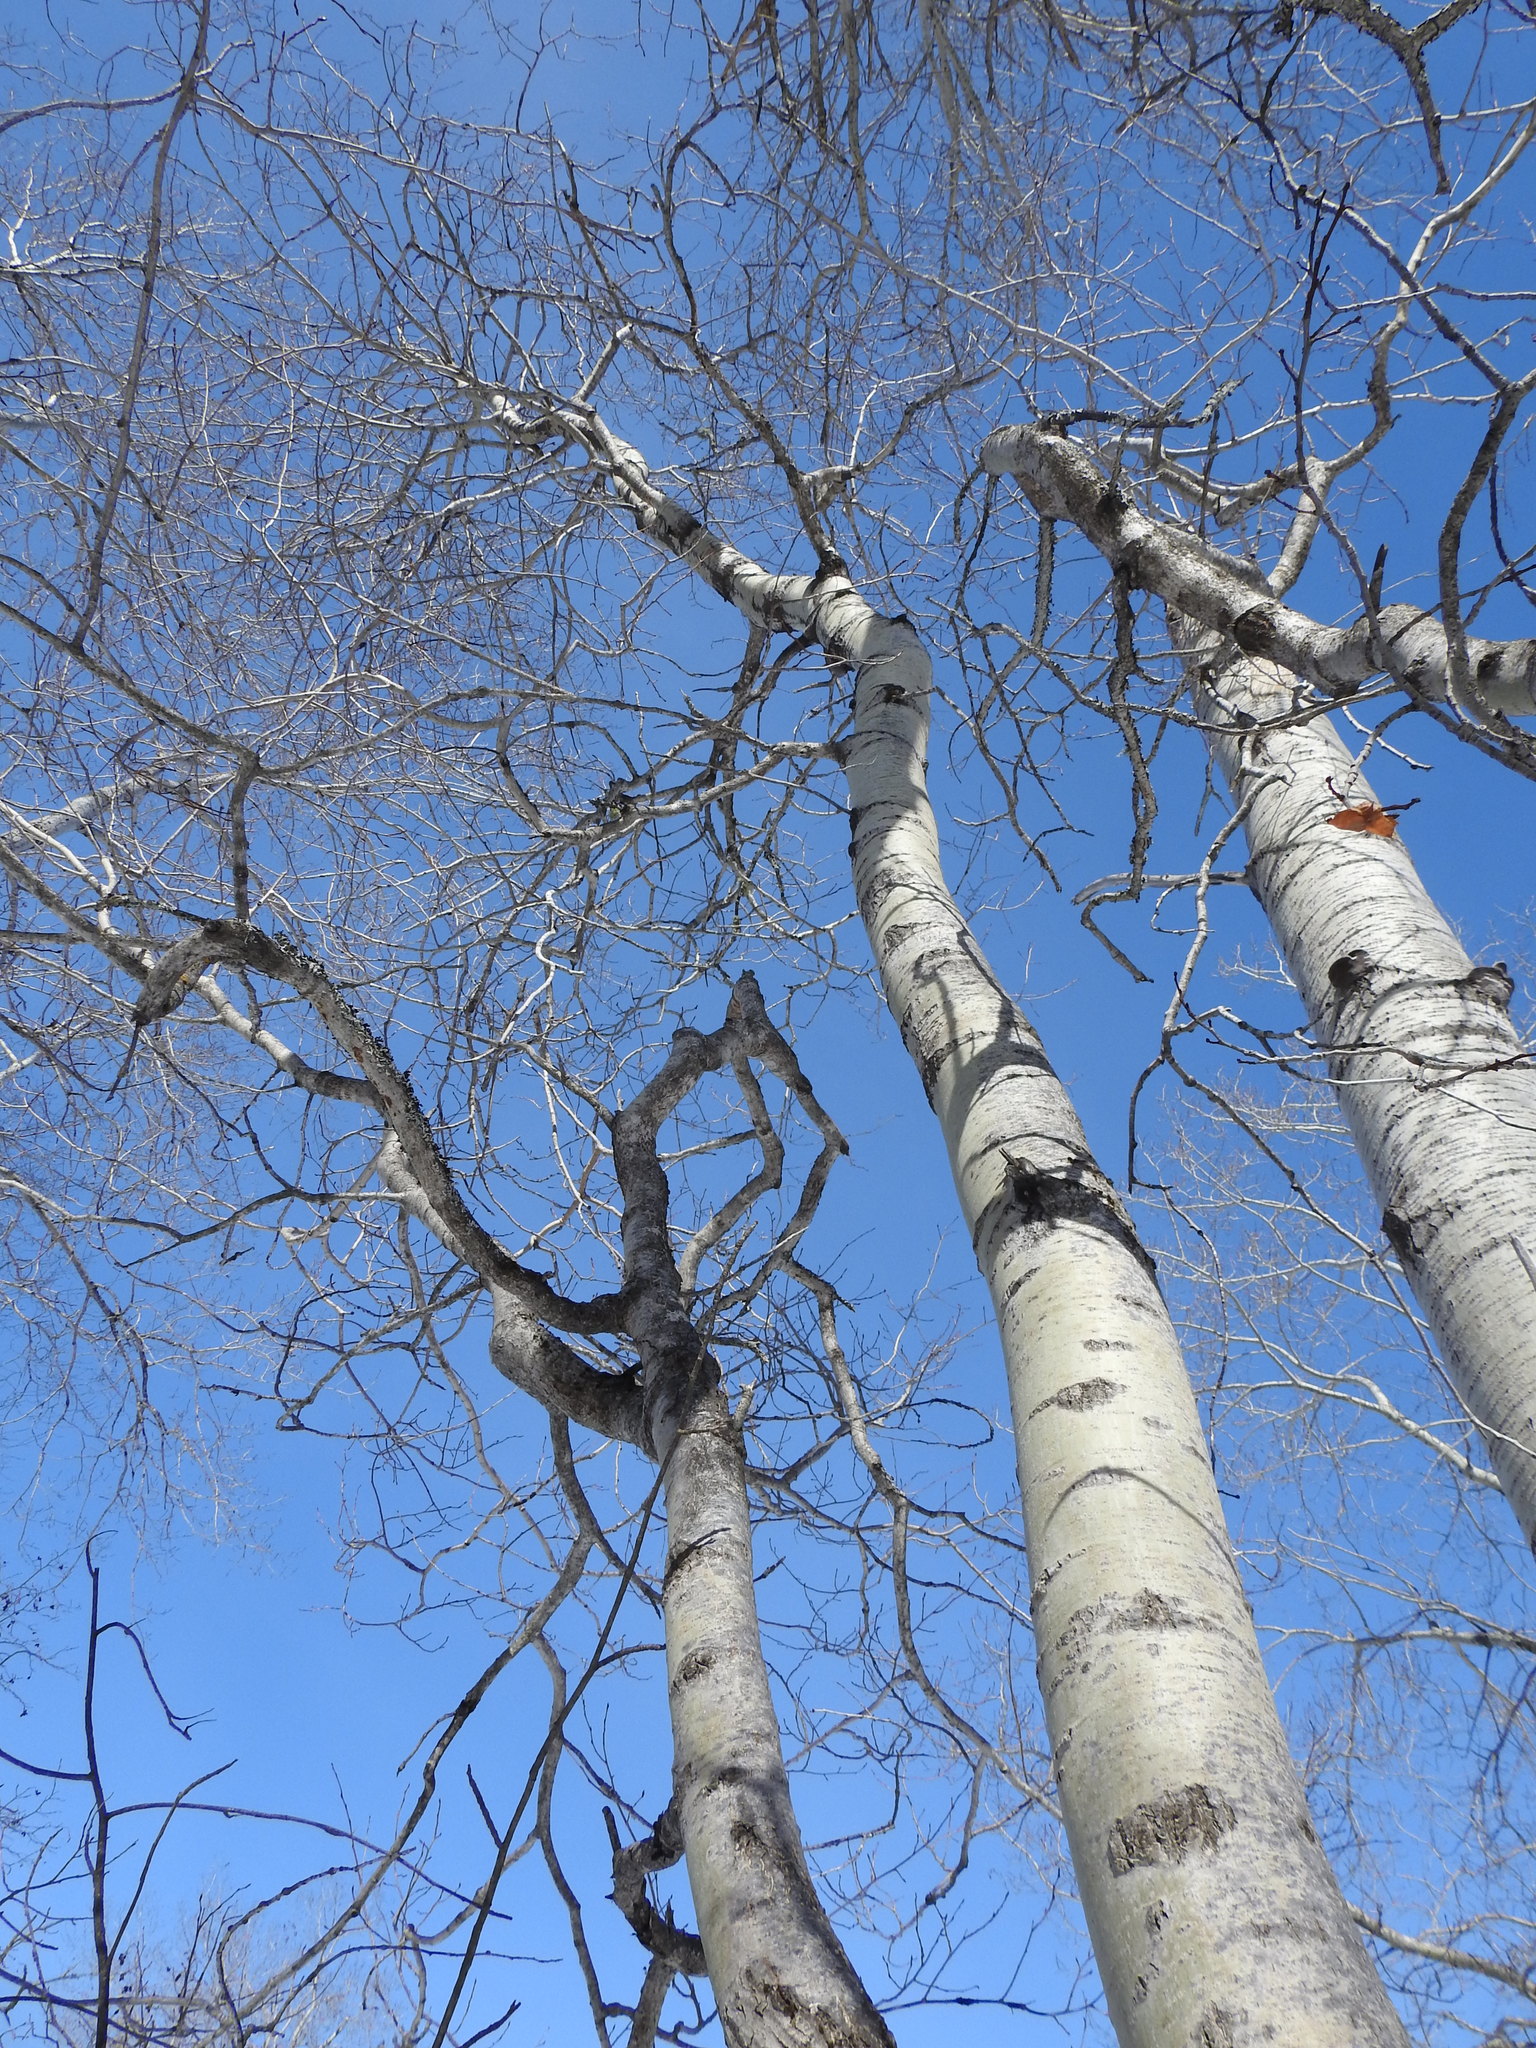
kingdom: Plantae
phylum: Tracheophyta
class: Magnoliopsida
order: Malpighiales
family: Salicaceae
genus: Populus
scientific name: Populus tremuloides
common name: Quaking aspen
